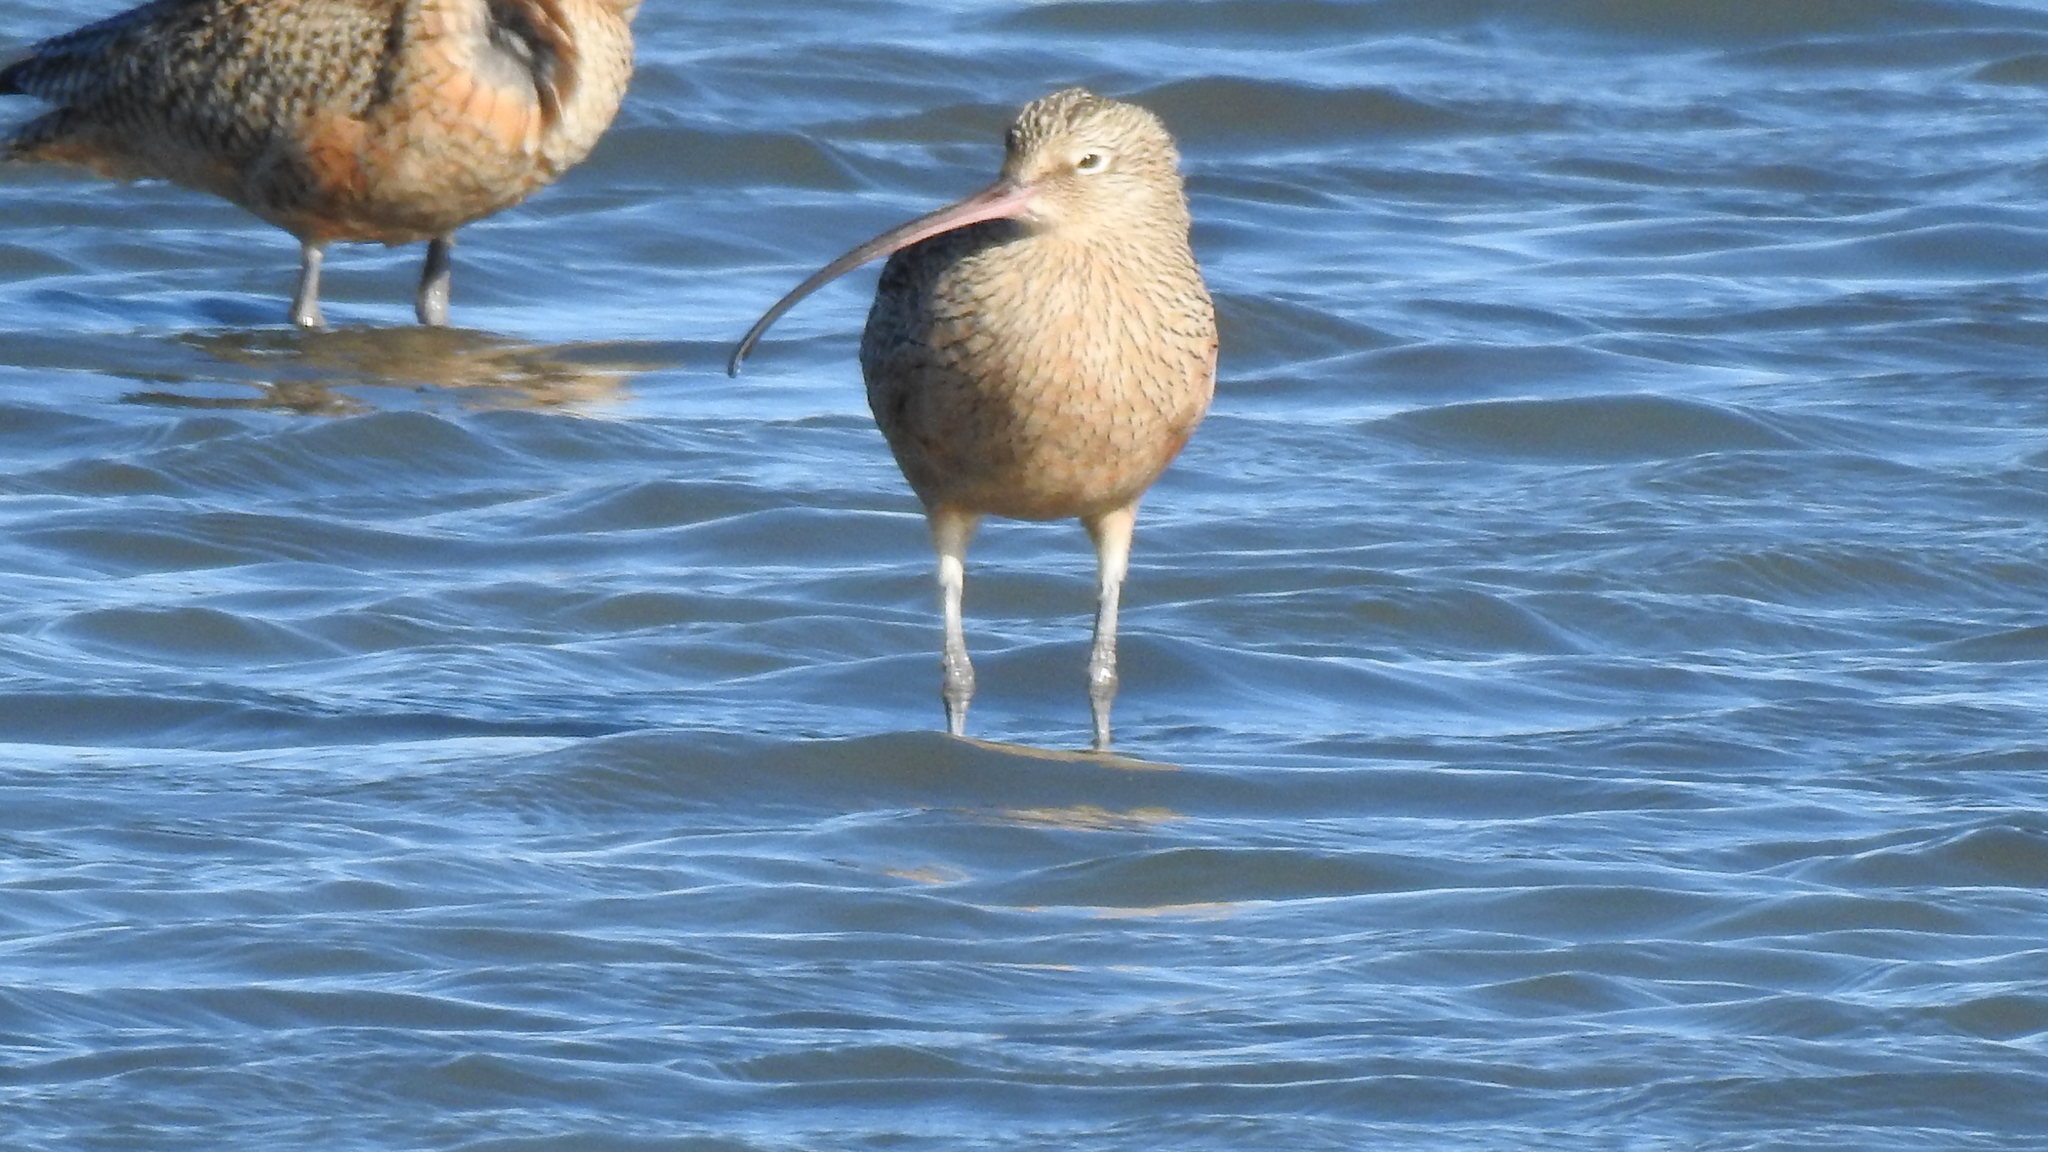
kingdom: Animalia
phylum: Chordata
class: Aves
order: Charadriiformes
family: Scolopacidae
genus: Numenius
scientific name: Numenius americanus
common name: Long-billed curlew
